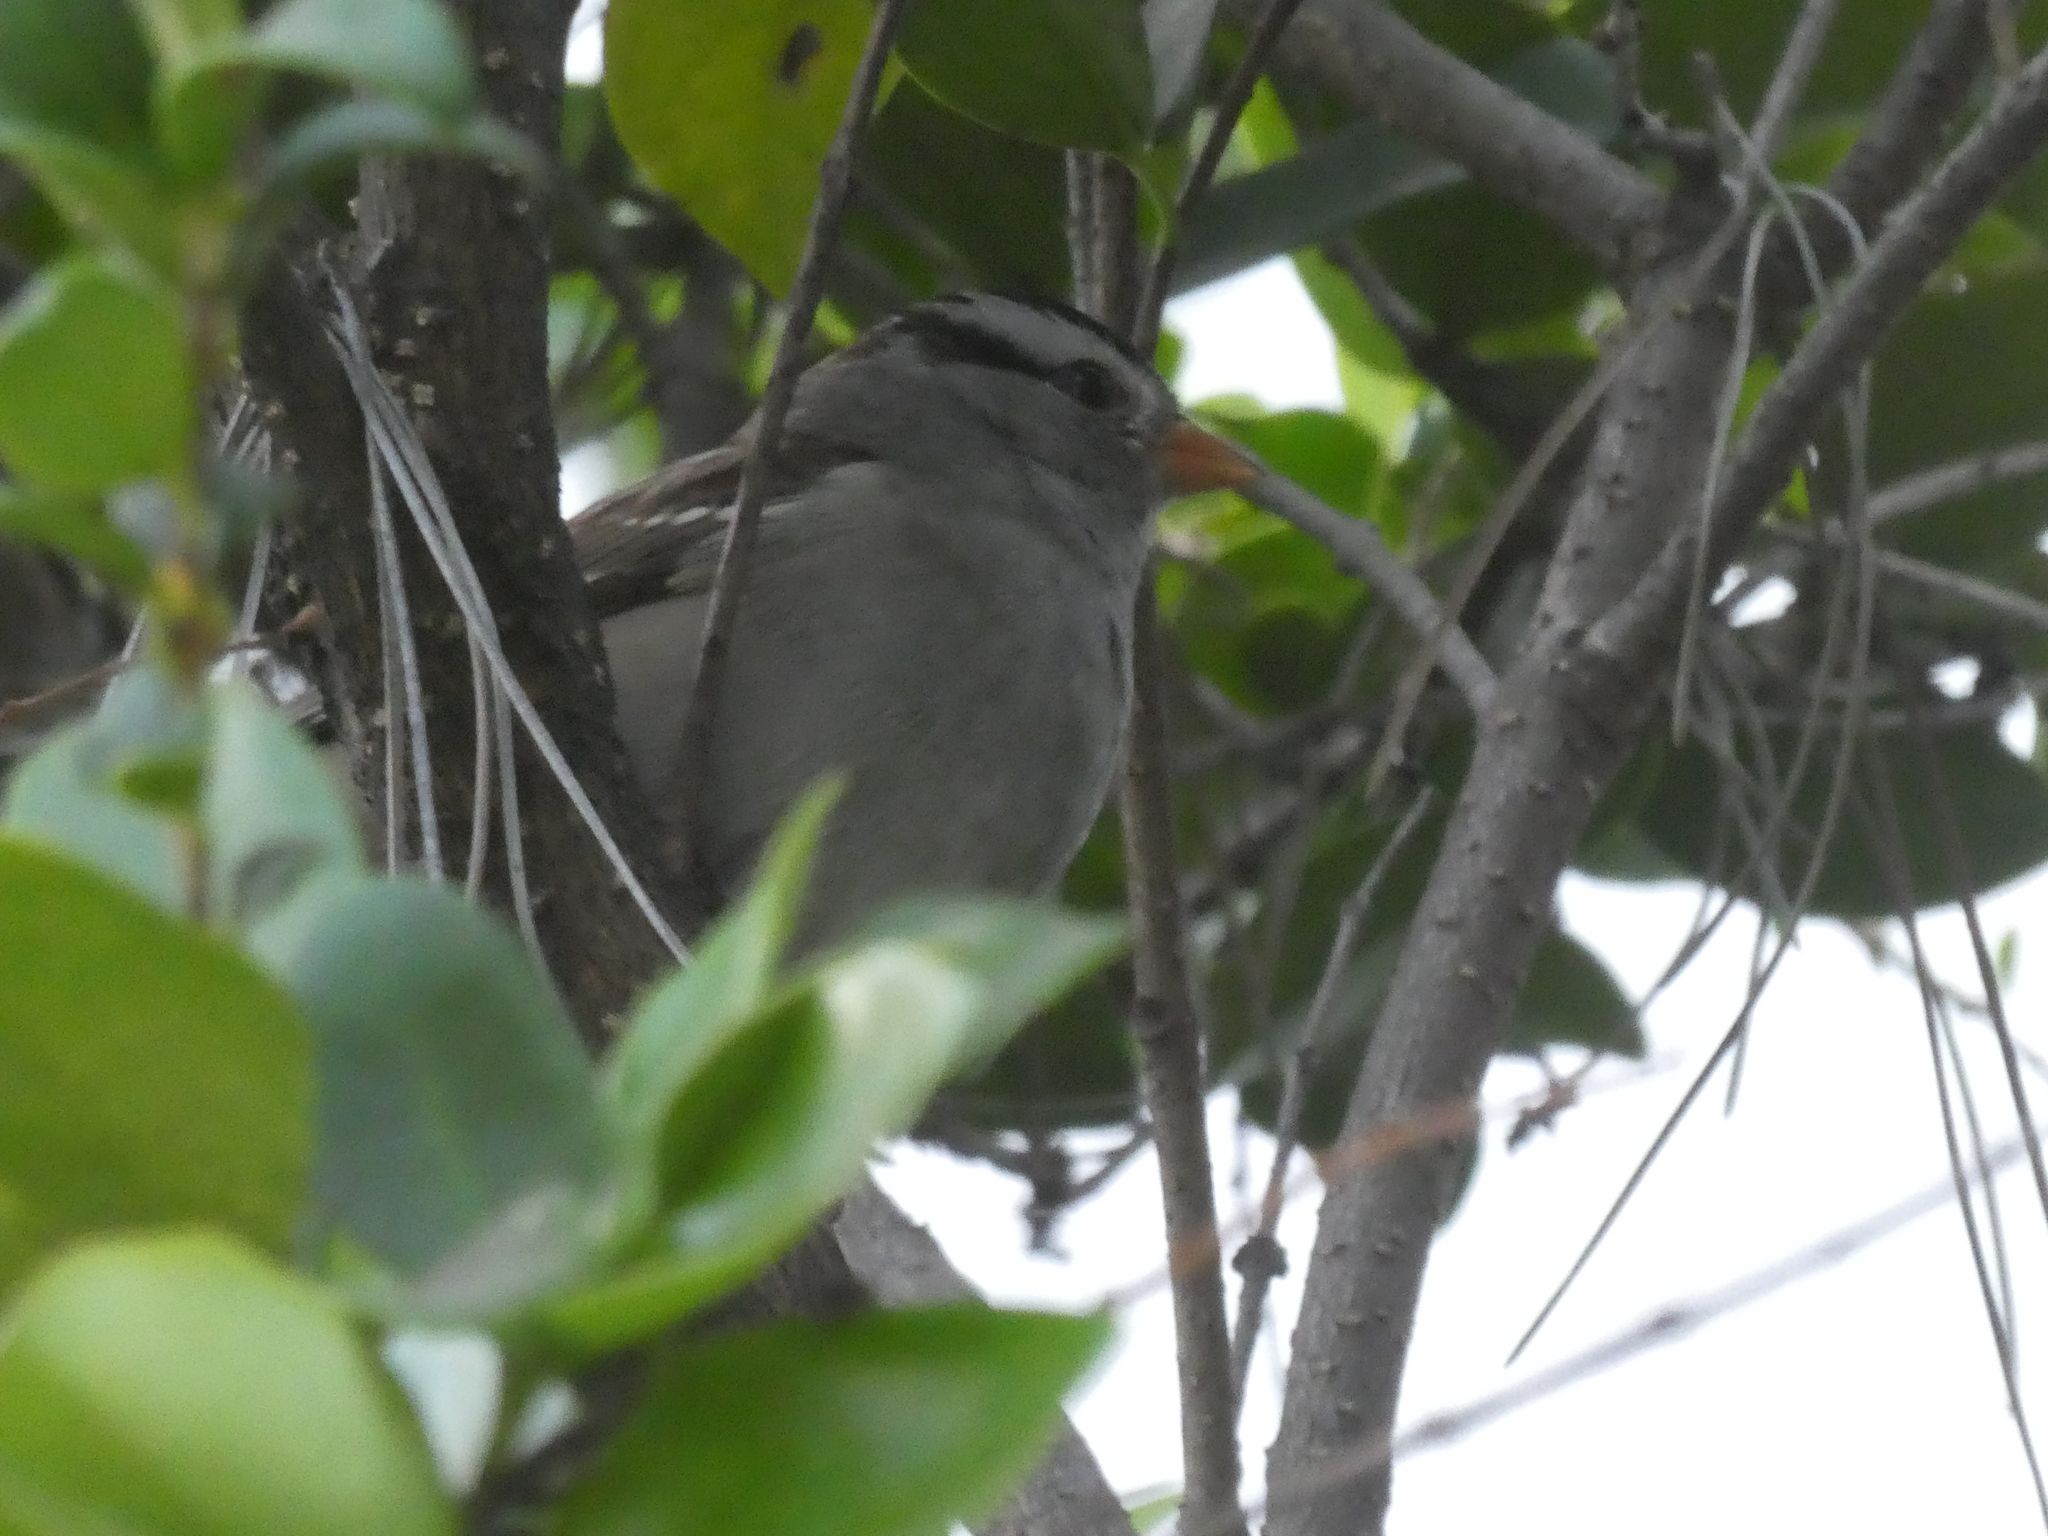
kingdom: Animalia
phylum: Chordata
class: Aves
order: Passeriformes
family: Passerellidae
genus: Zonotrichia
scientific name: Zonotrichia leucophrys
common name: White-crowned sparrow
